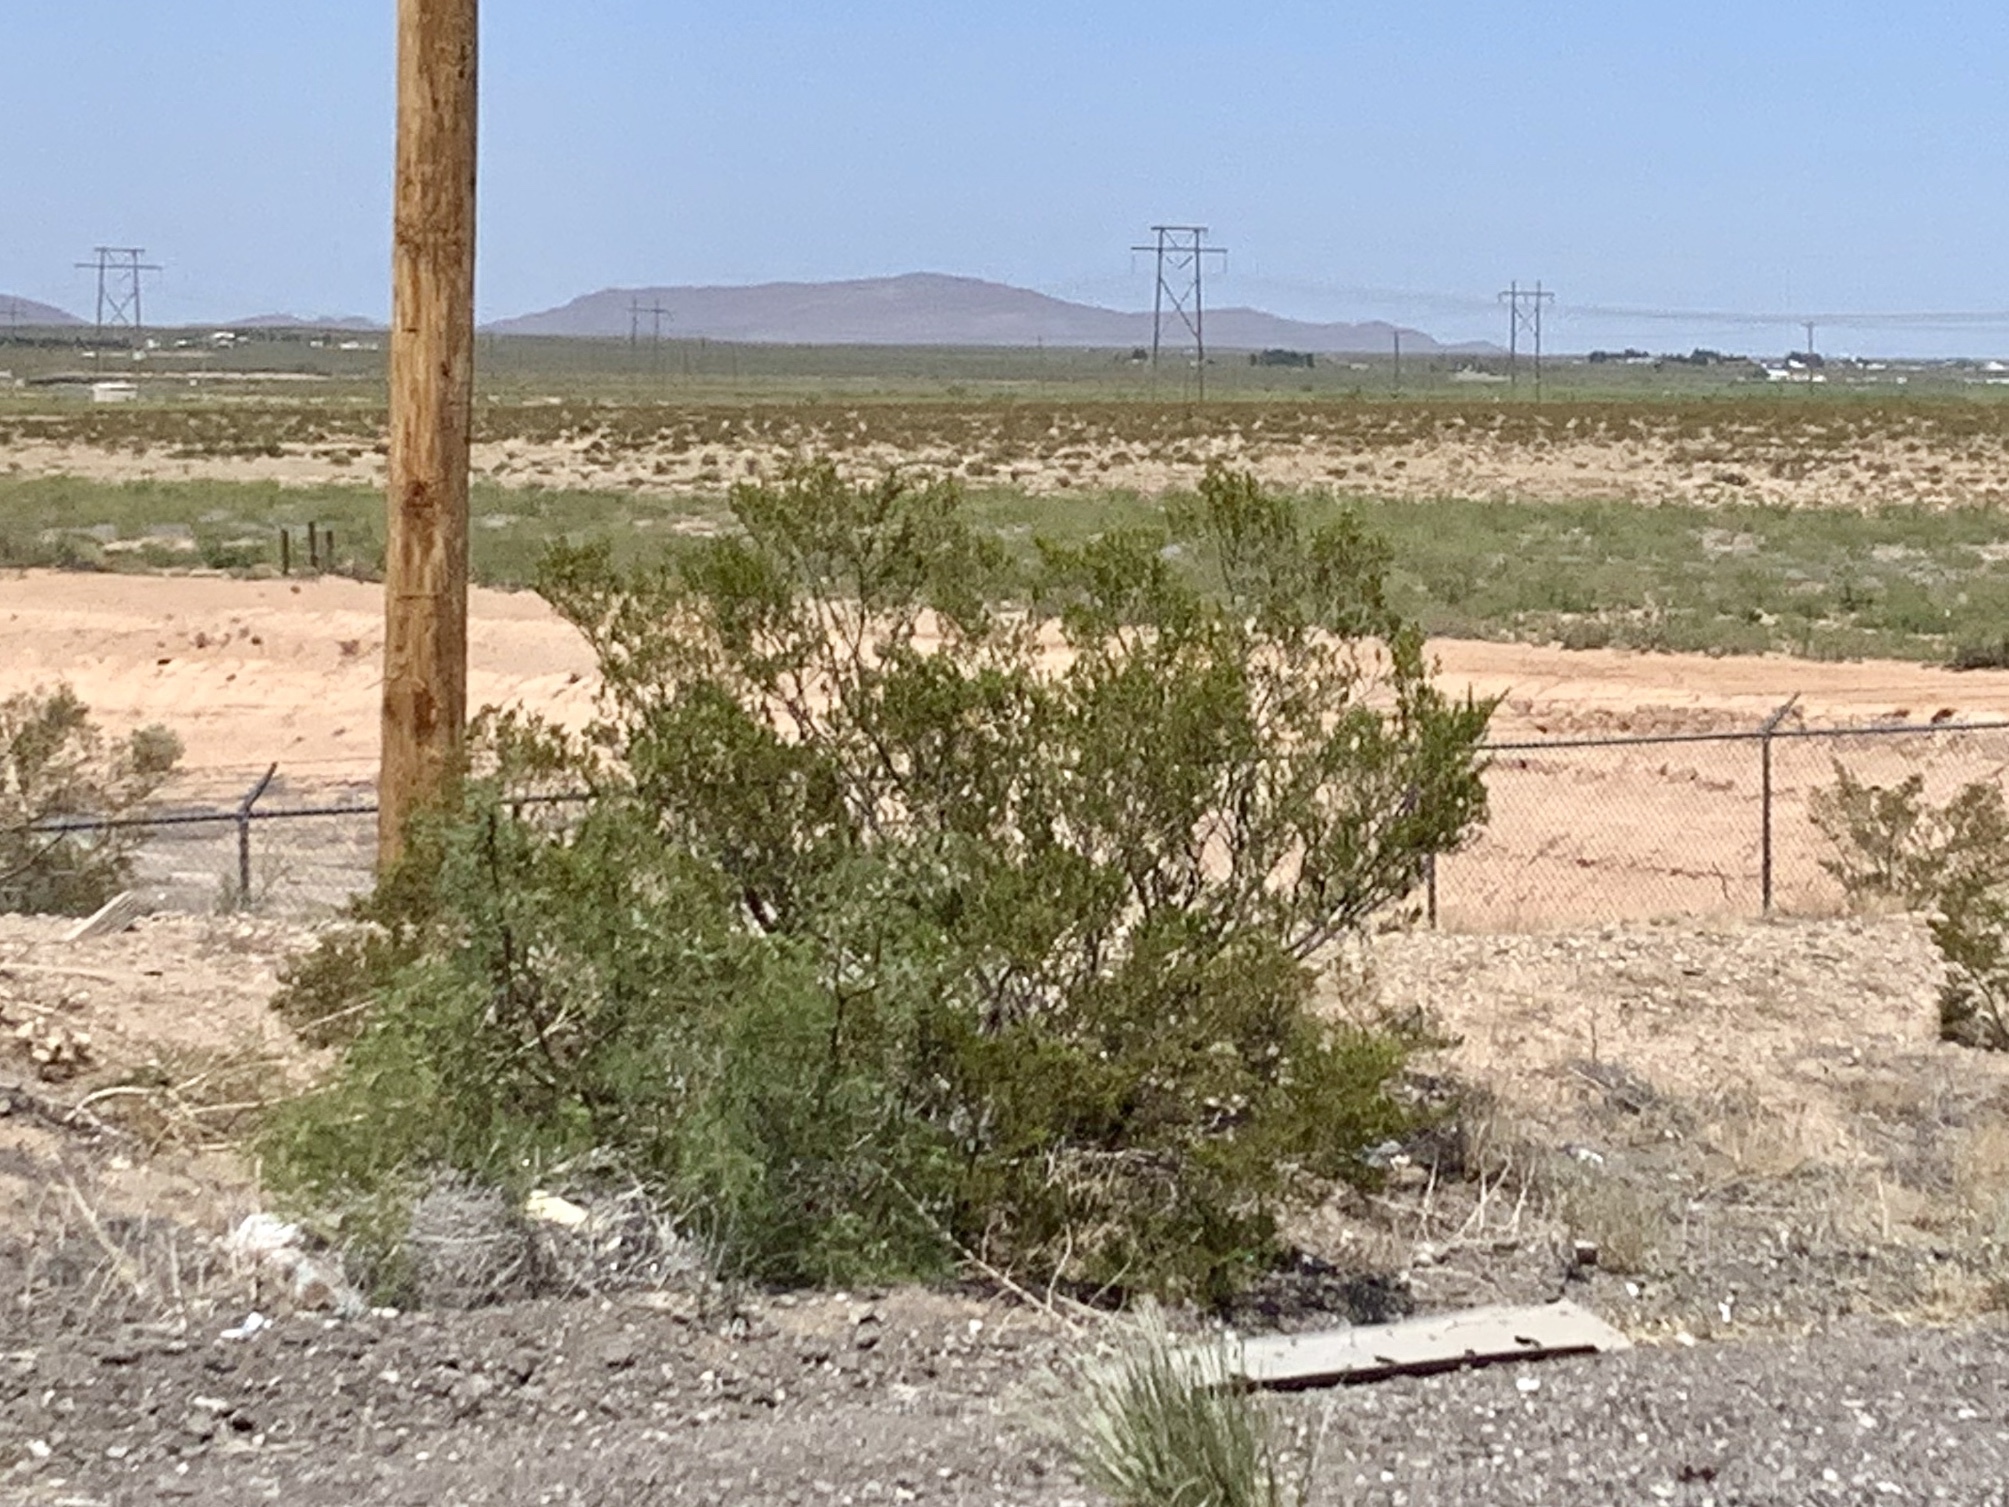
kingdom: Plantae
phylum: Tracheophyta
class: Magnoliopsida
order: Zygophyllales
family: Zygophyllaceae
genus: Larrea
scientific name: Larrea tridentata
